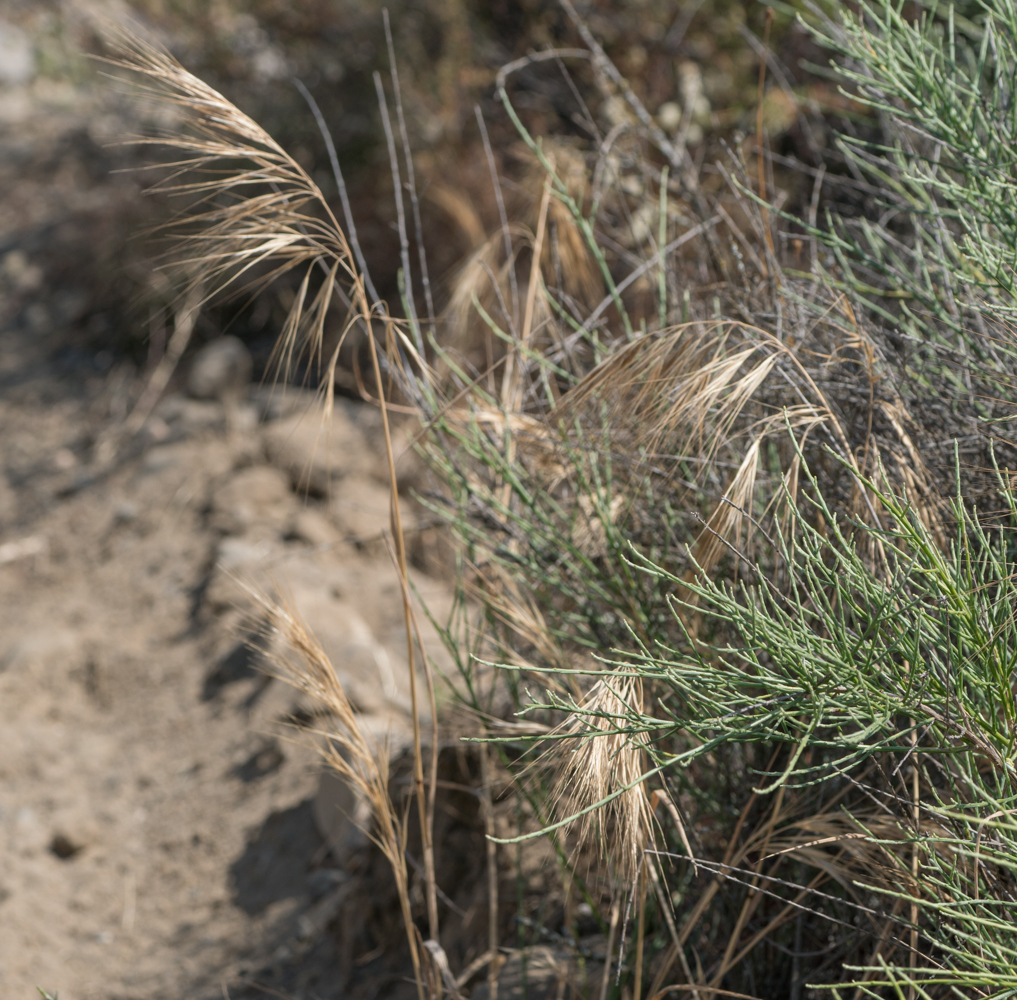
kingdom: Plantae
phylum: Tracheophyta
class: Liliopsida
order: Poales
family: Poaceae
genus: Bromus
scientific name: Bromus diandrus
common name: Ripgut brome
